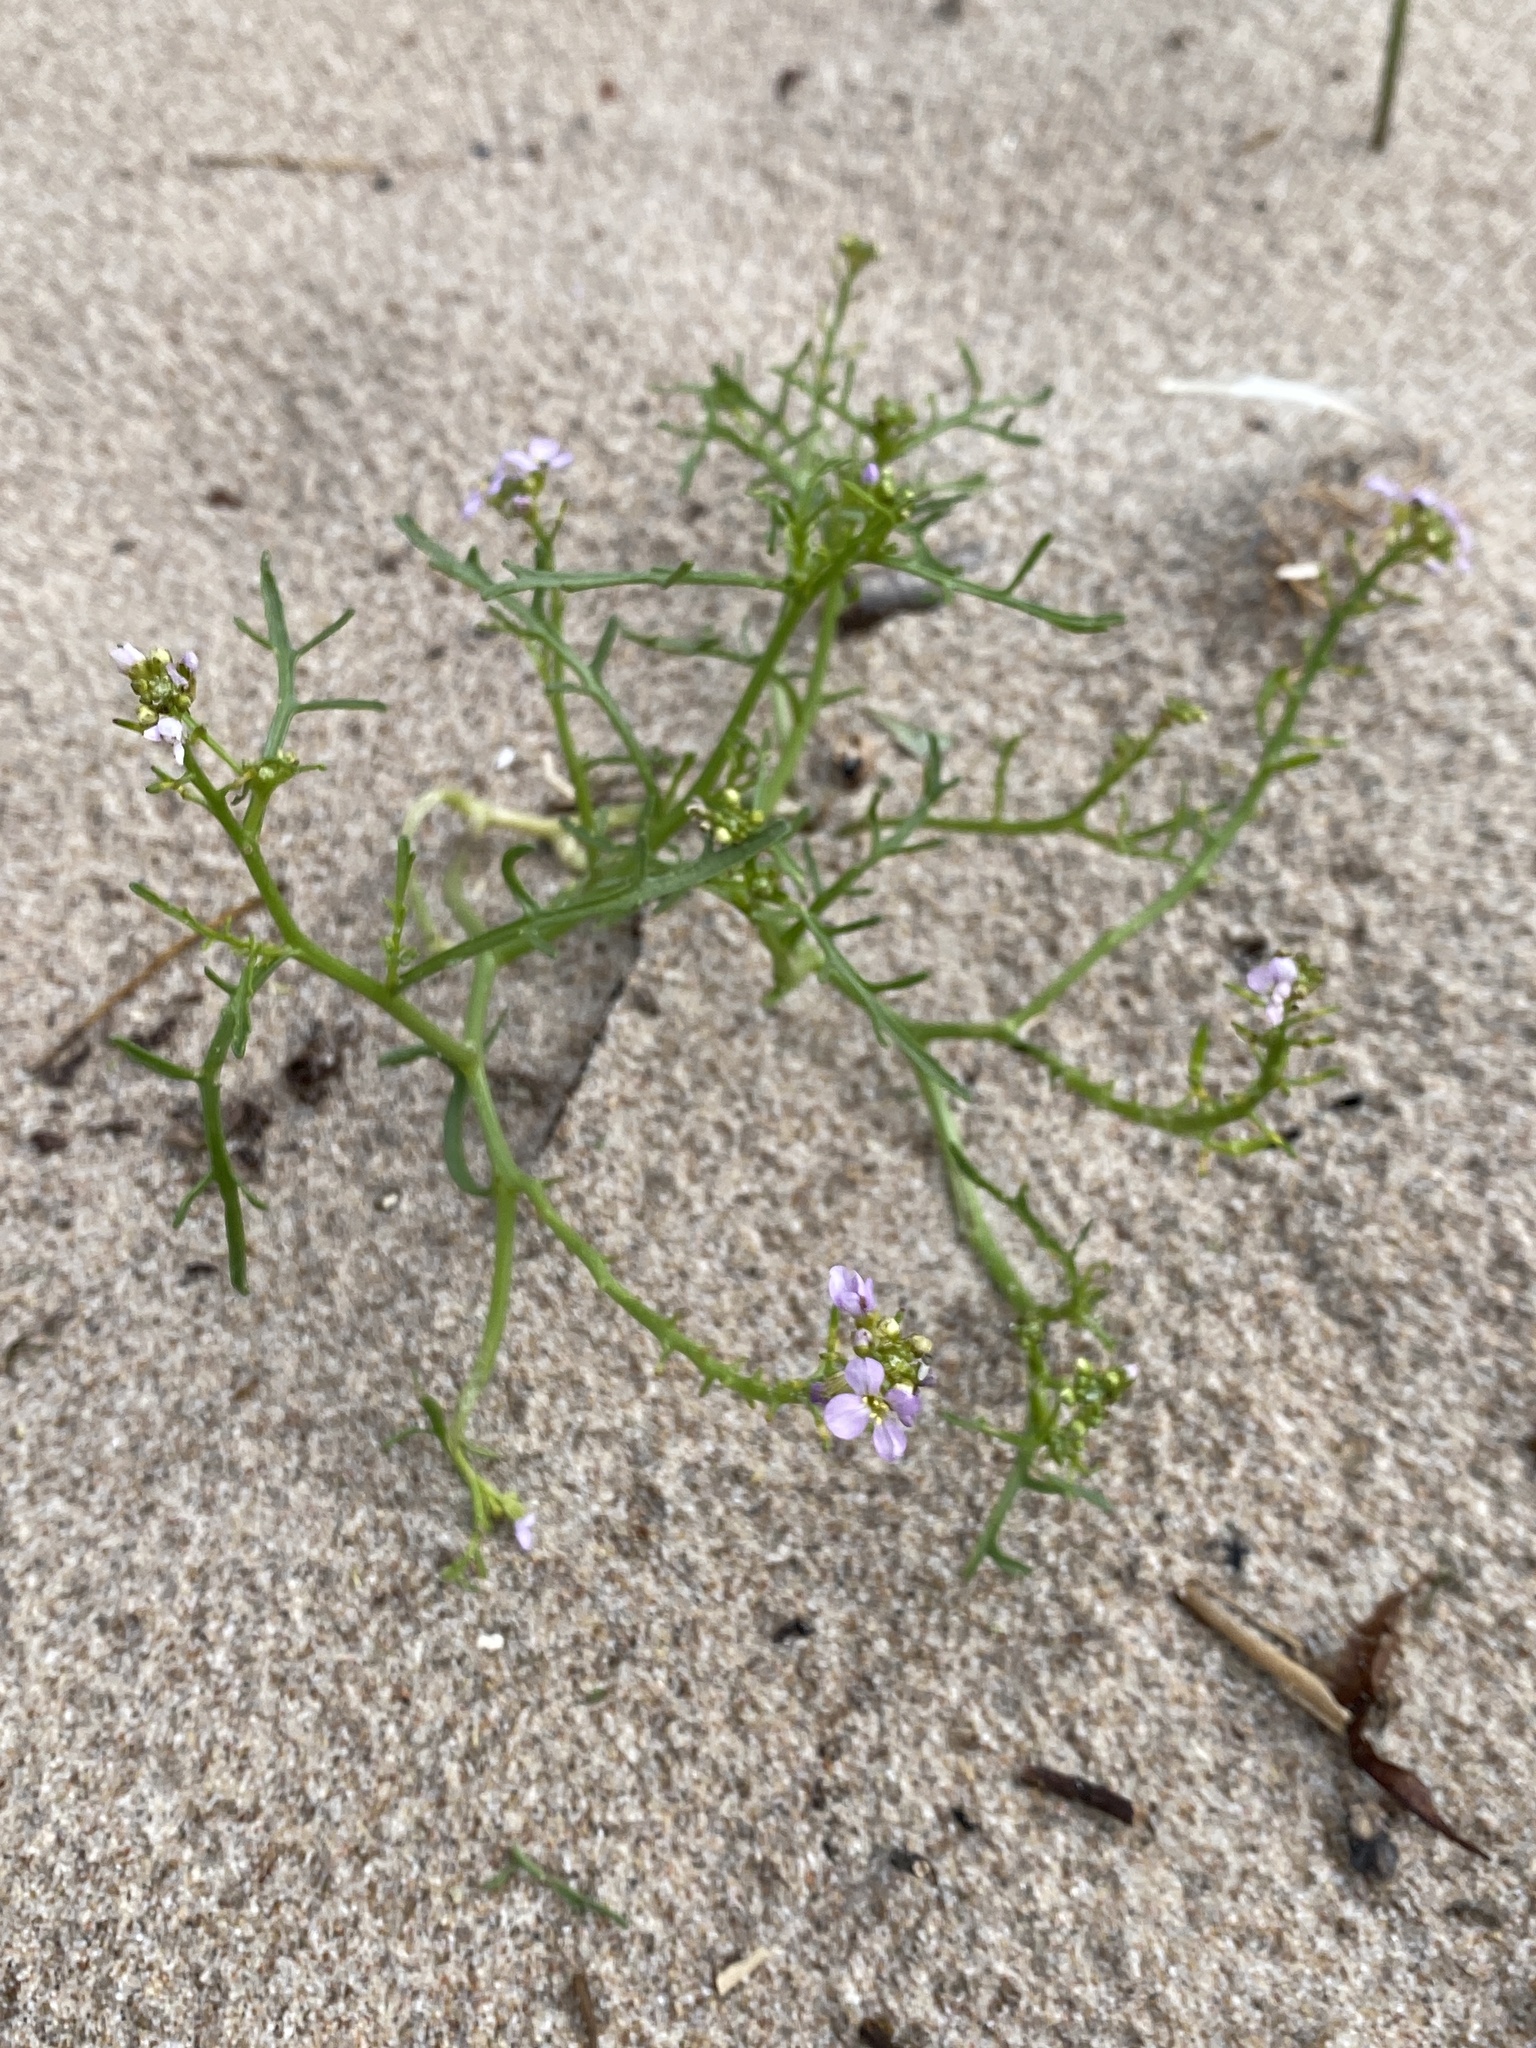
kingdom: Plantae
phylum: Tracheophyta
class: Magnoliopsida
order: Brassicales
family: Brassicaceae
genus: Cakile
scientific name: Cakile maritima
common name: Sea rocket
